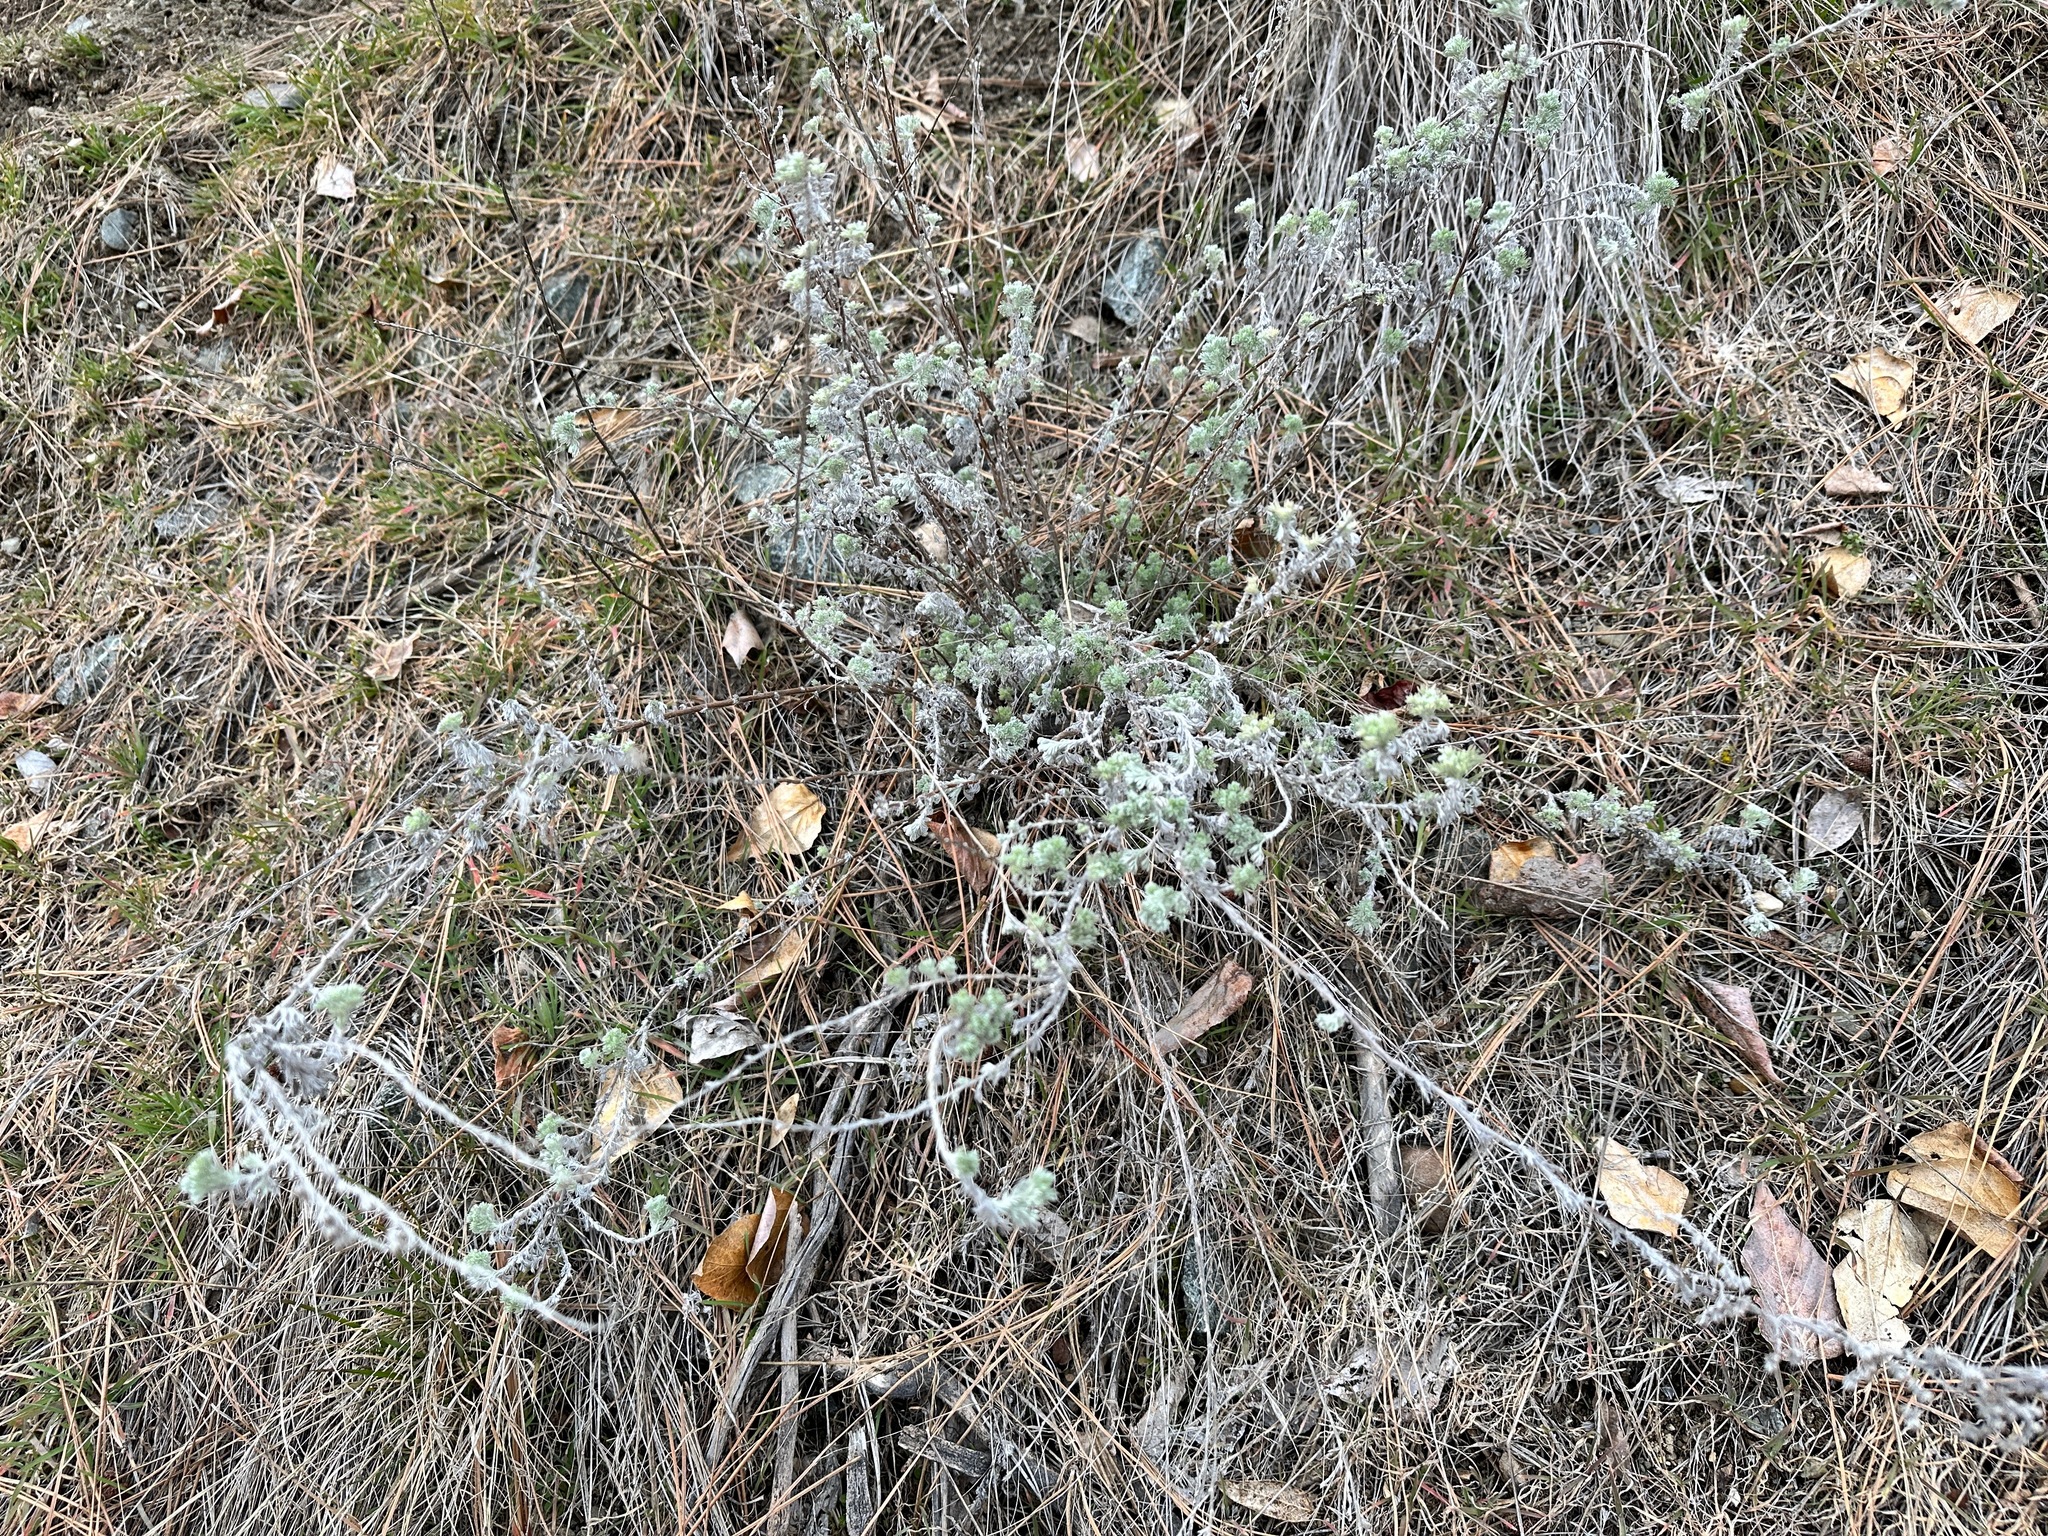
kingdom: Plantae
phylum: Tracheophyta
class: Magnoliopsida
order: Asterales
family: Asteraceae
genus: Artemisia
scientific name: Artemisia frigida
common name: Prairie sagewort
